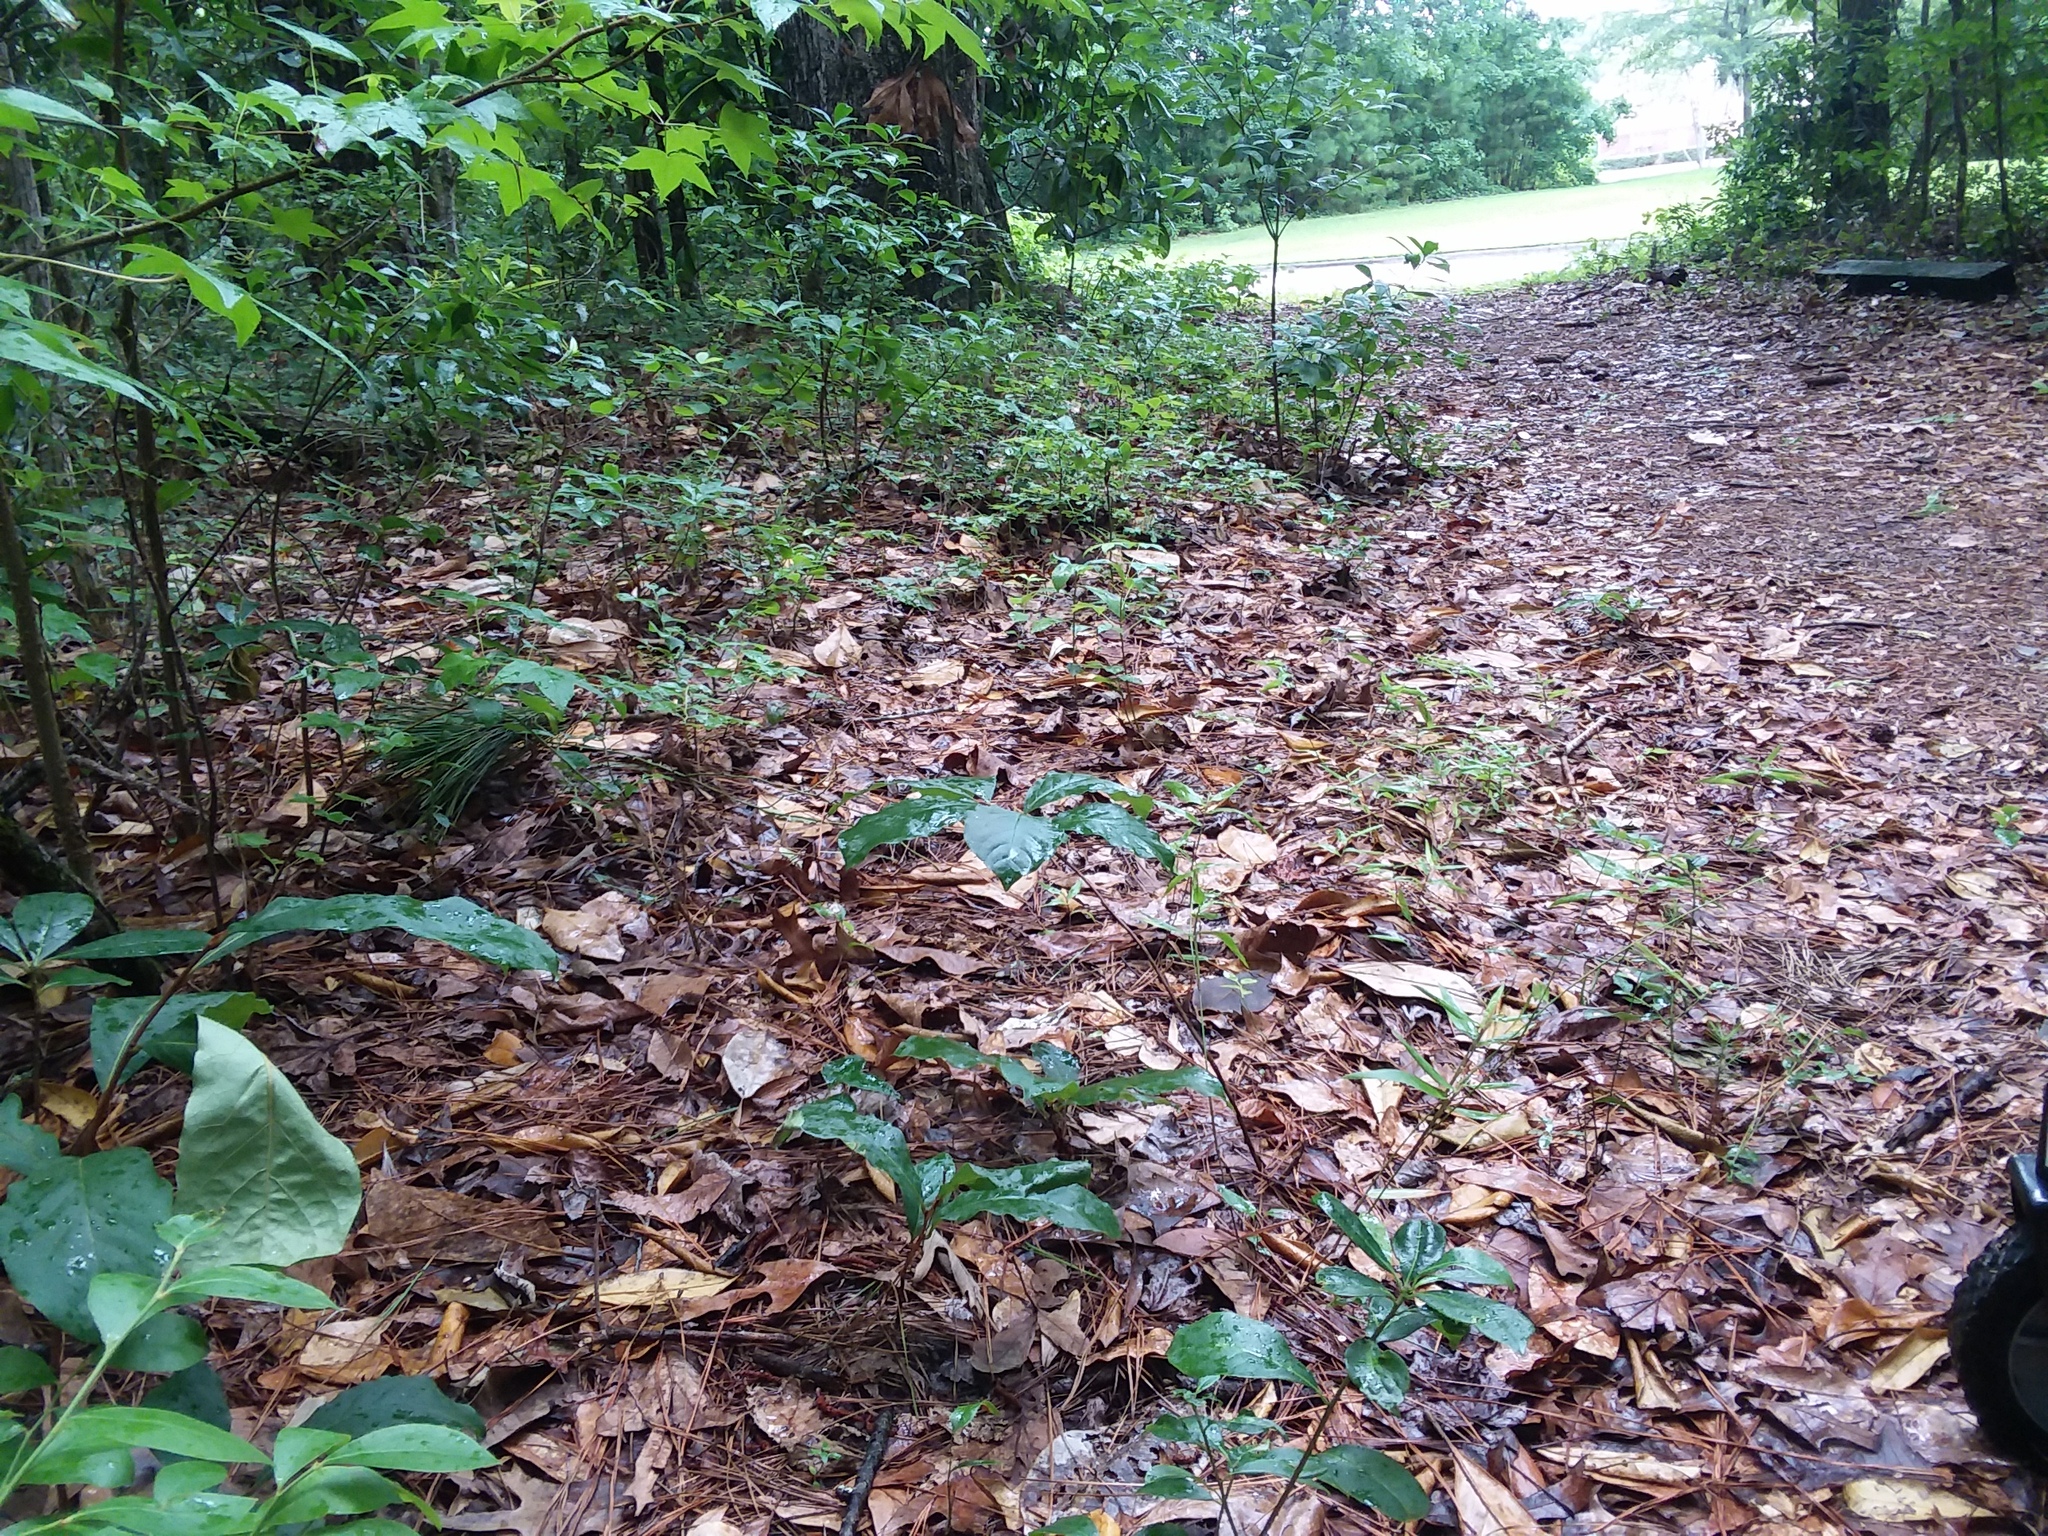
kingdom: Plantae
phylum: Tracheophyta
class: Magnoliopsida
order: Magnoliales
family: Annonaceae
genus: Asimina
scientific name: Asimina parviflora
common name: Dwarf pawpaw
